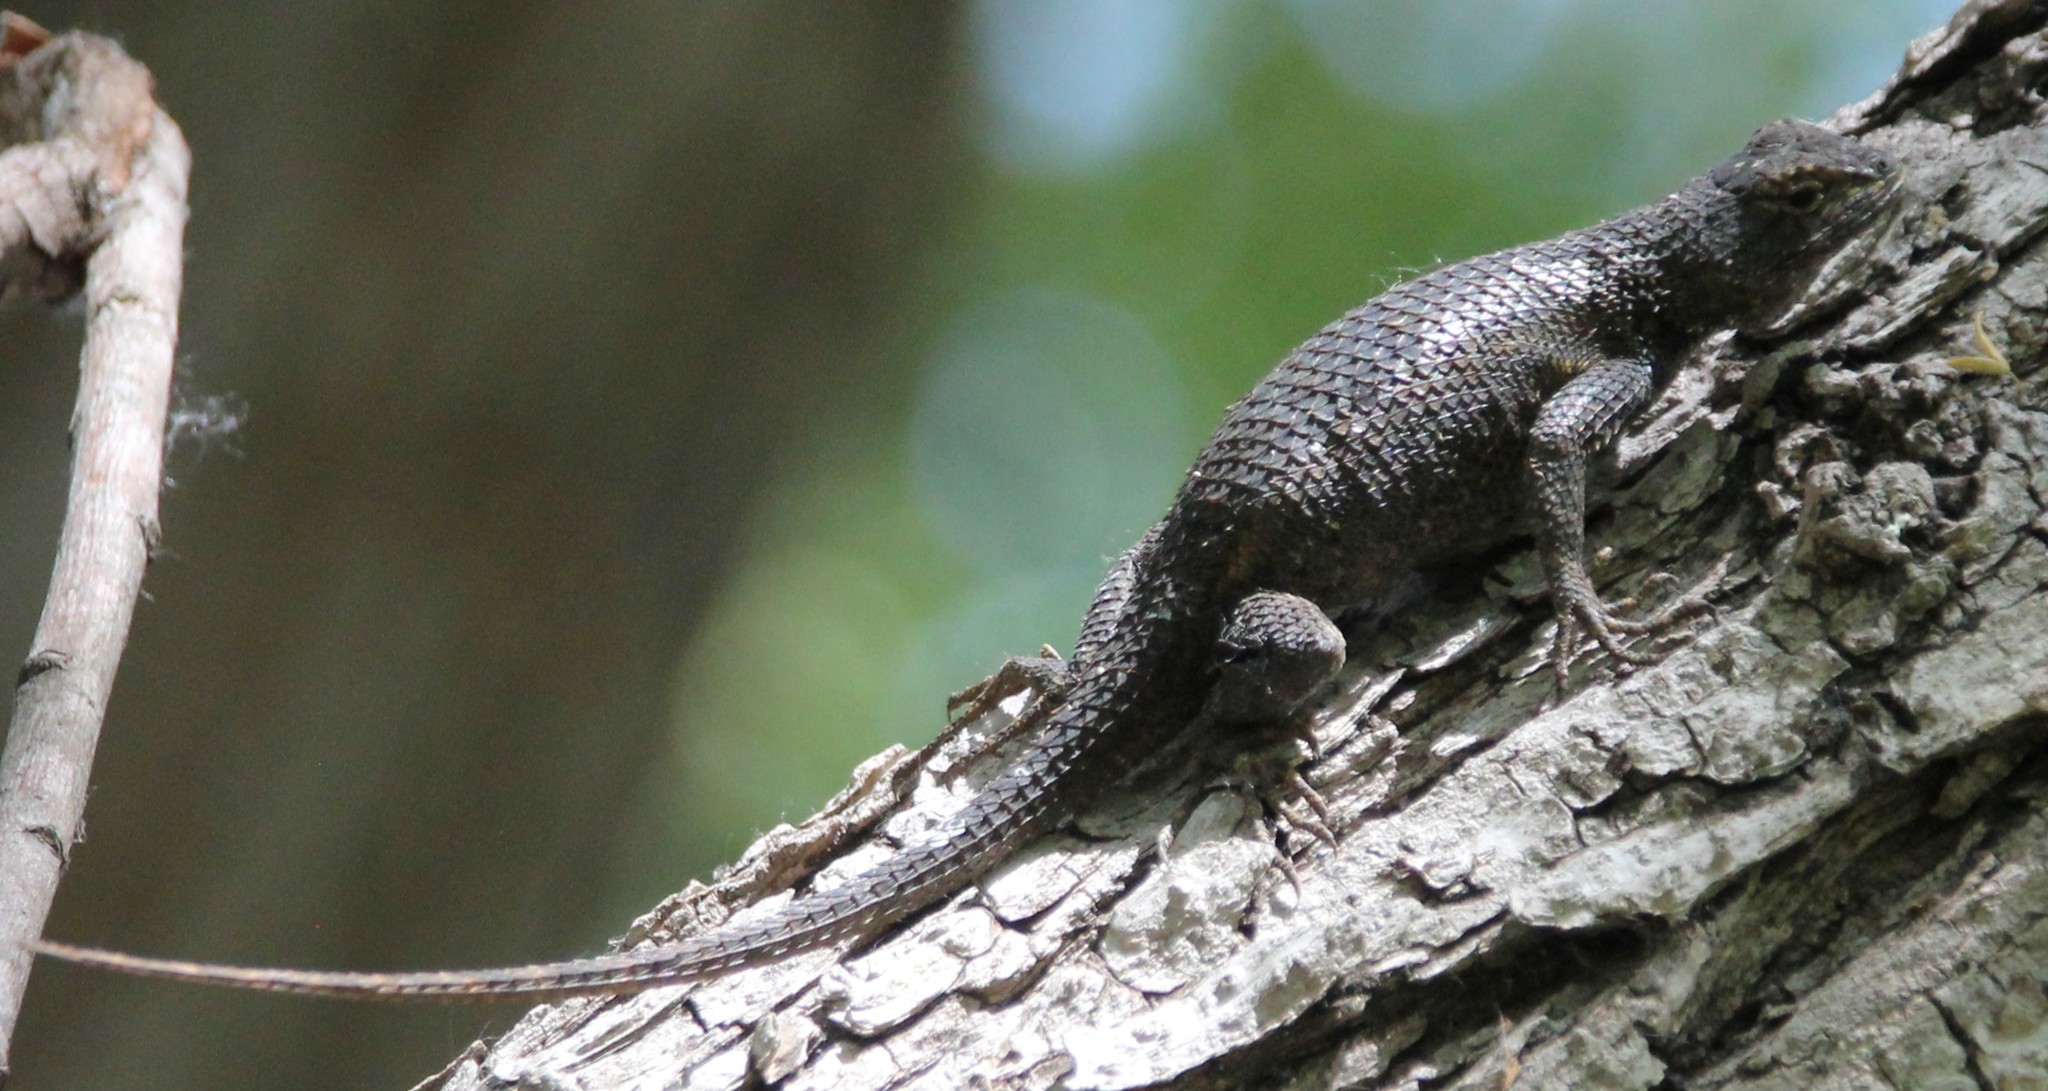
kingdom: Animalia
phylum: Chordata
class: Squamata
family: Phrynosomatidae
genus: Sceloporus
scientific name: Sceloporus occidentalis
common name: Western fence lizard
